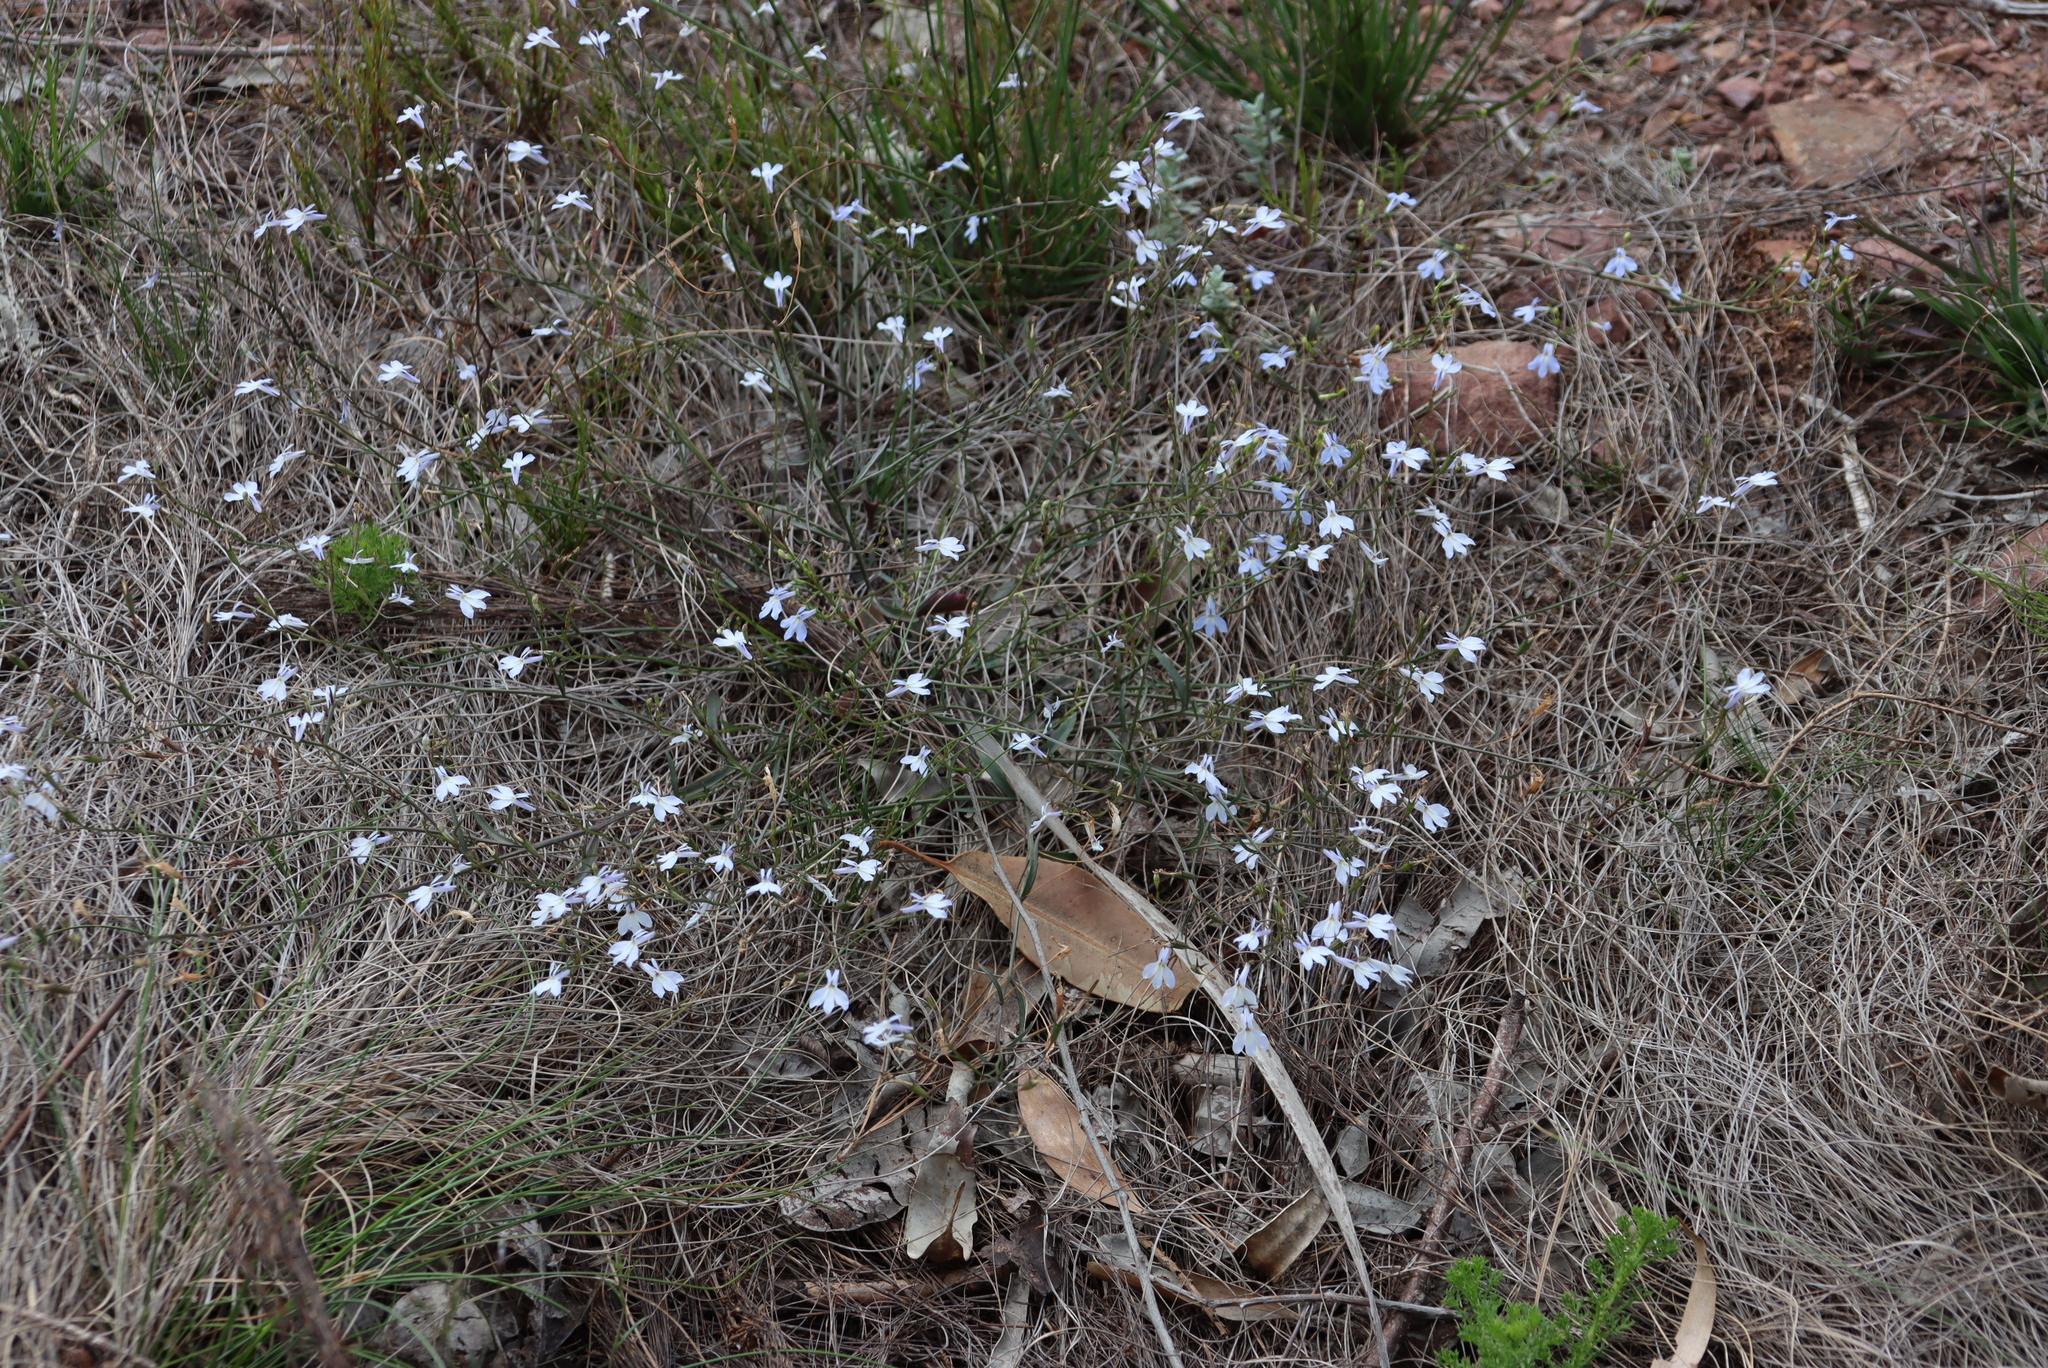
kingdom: Plantae
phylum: Tracheophyta
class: Magnoliopsida
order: Asterales
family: Campanulaceae
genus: Lobelia
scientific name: Lobelia erinus
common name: Edging lobelia
